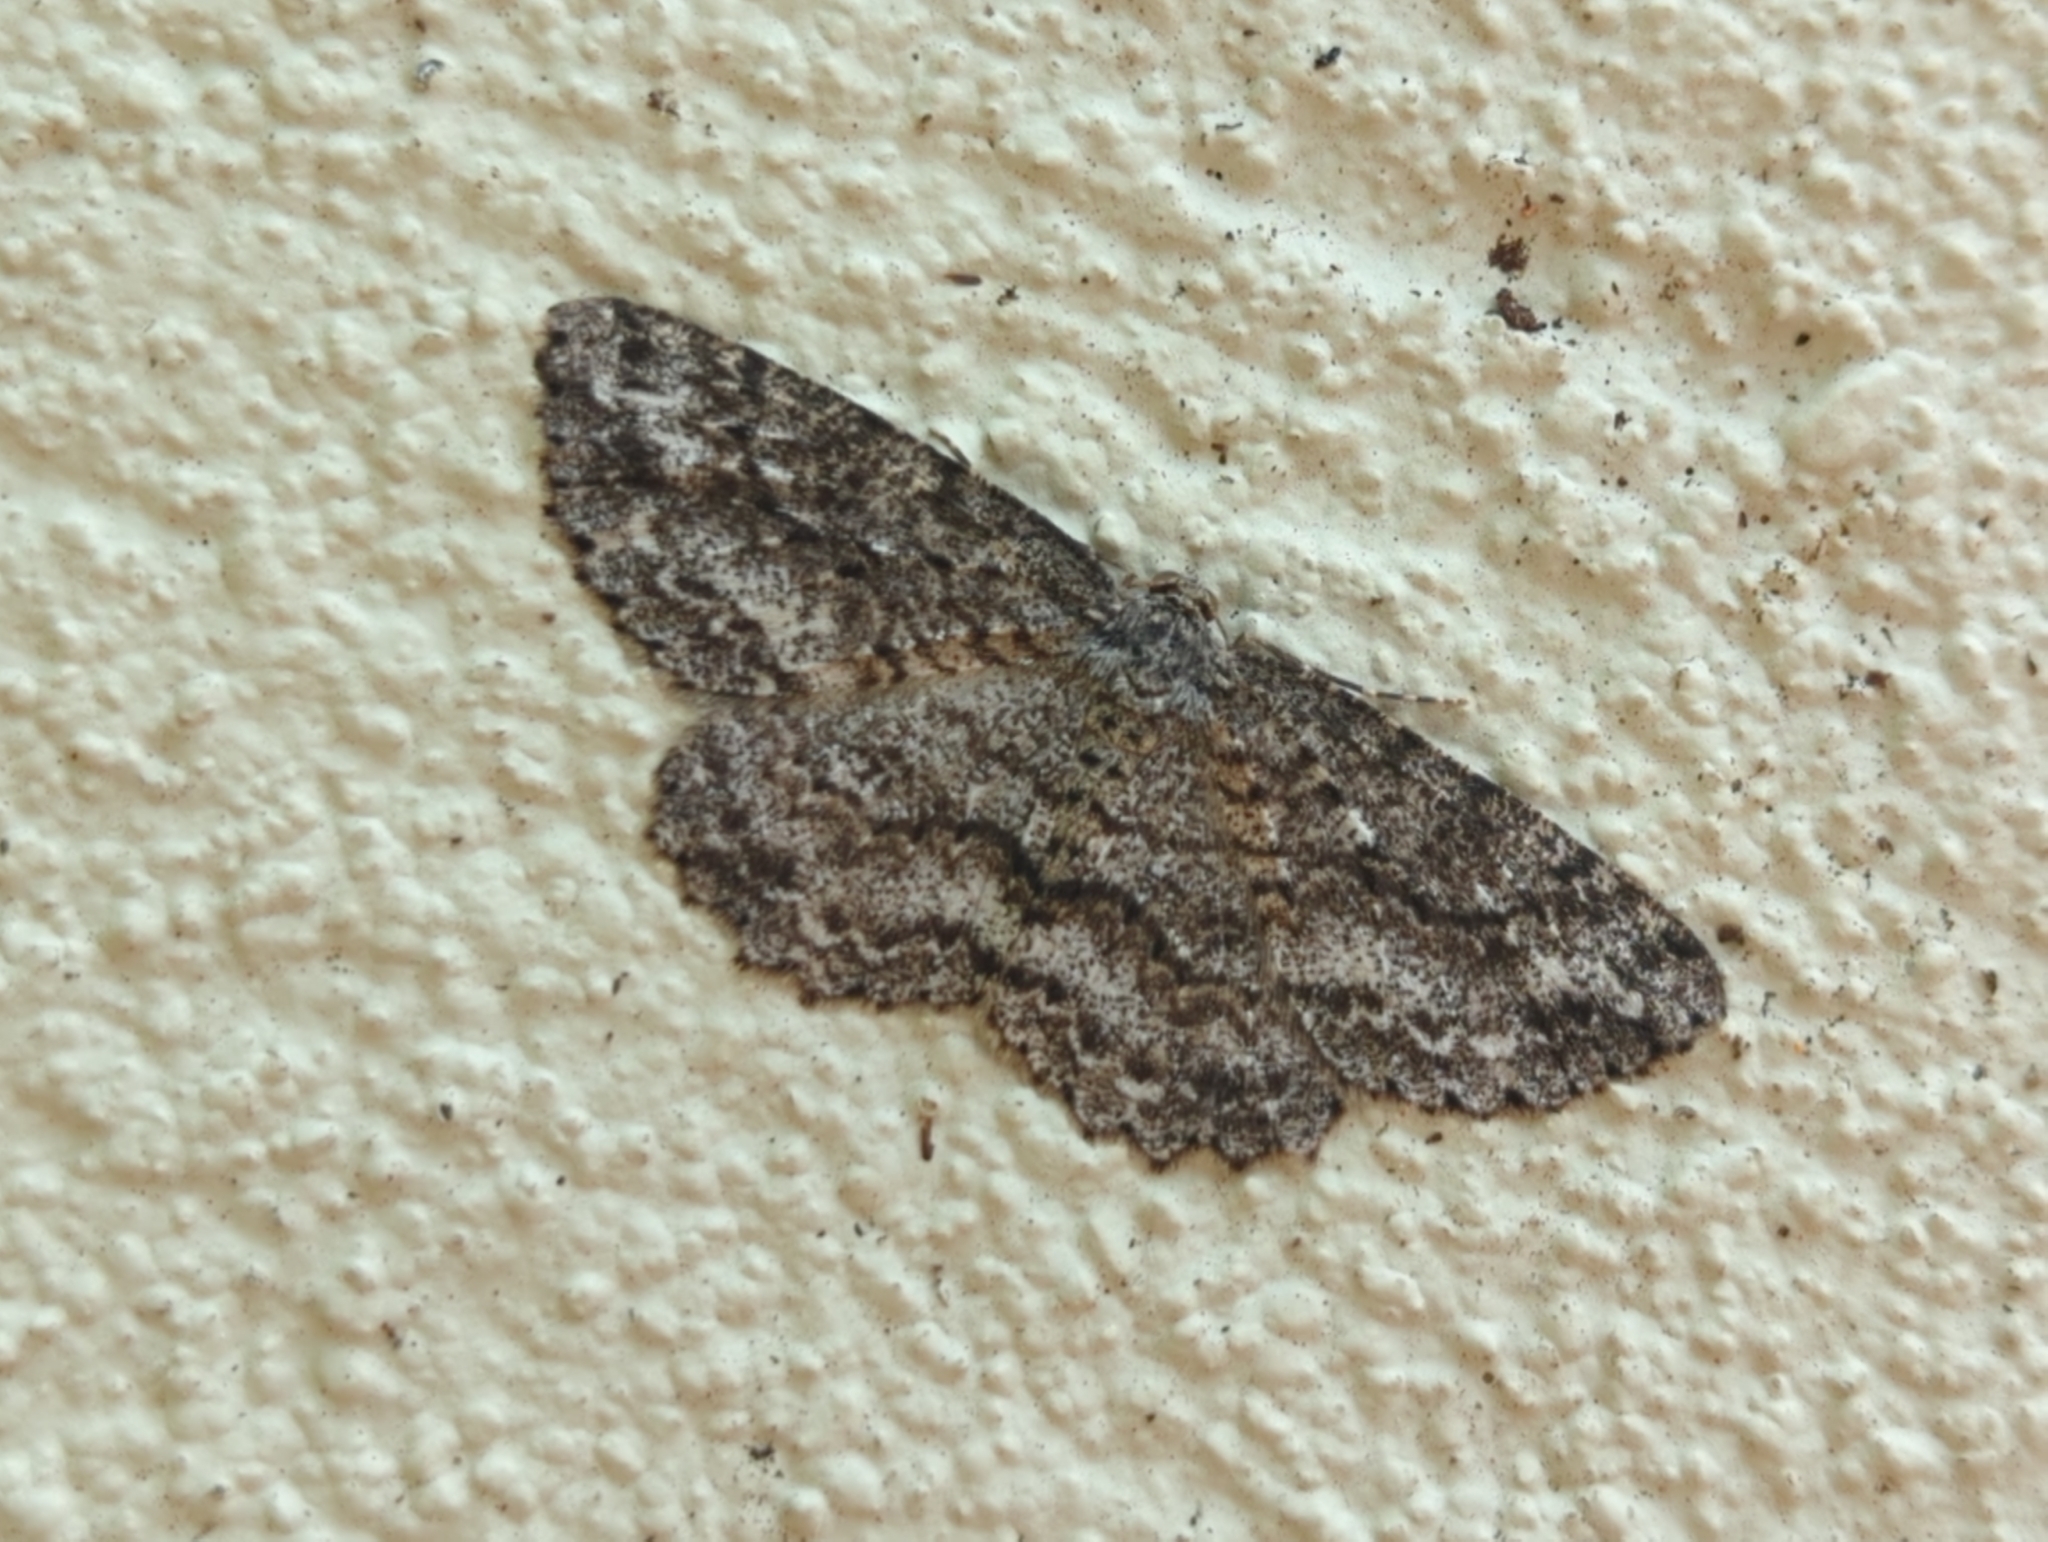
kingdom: Animalia
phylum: Arthropoda
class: Insecta
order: Lepidoptera
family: Geometridae
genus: Ectropis
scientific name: Ectropis fractaria
